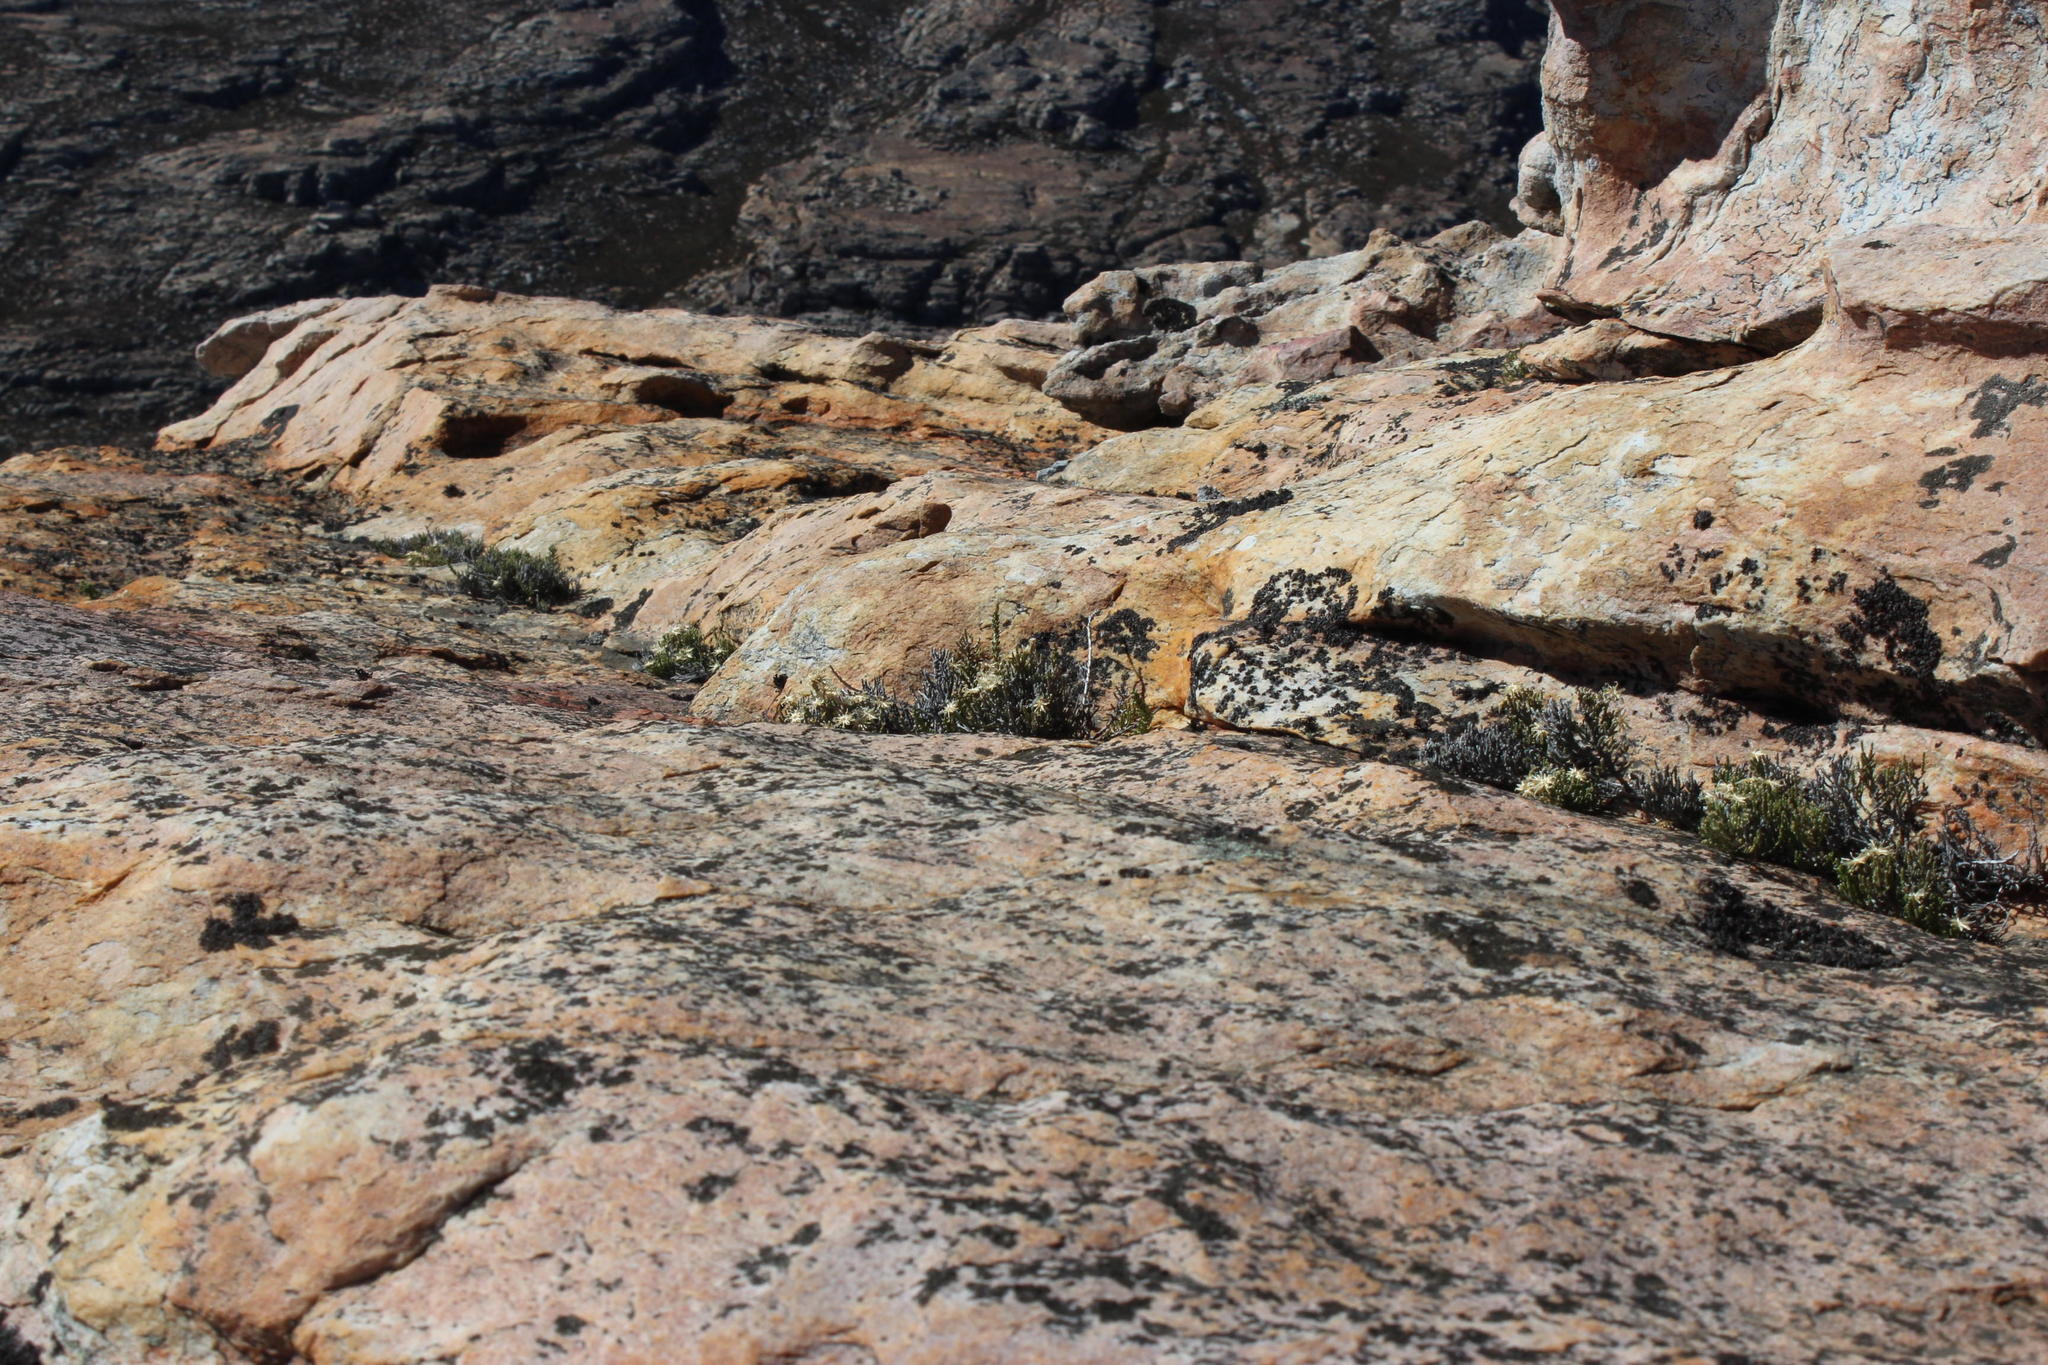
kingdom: Plantae
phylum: Tracheophyta
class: Magnoliopsida
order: Asterales
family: Asteraceae
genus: Dolichothrix
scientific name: Dolichothrix ericoides
